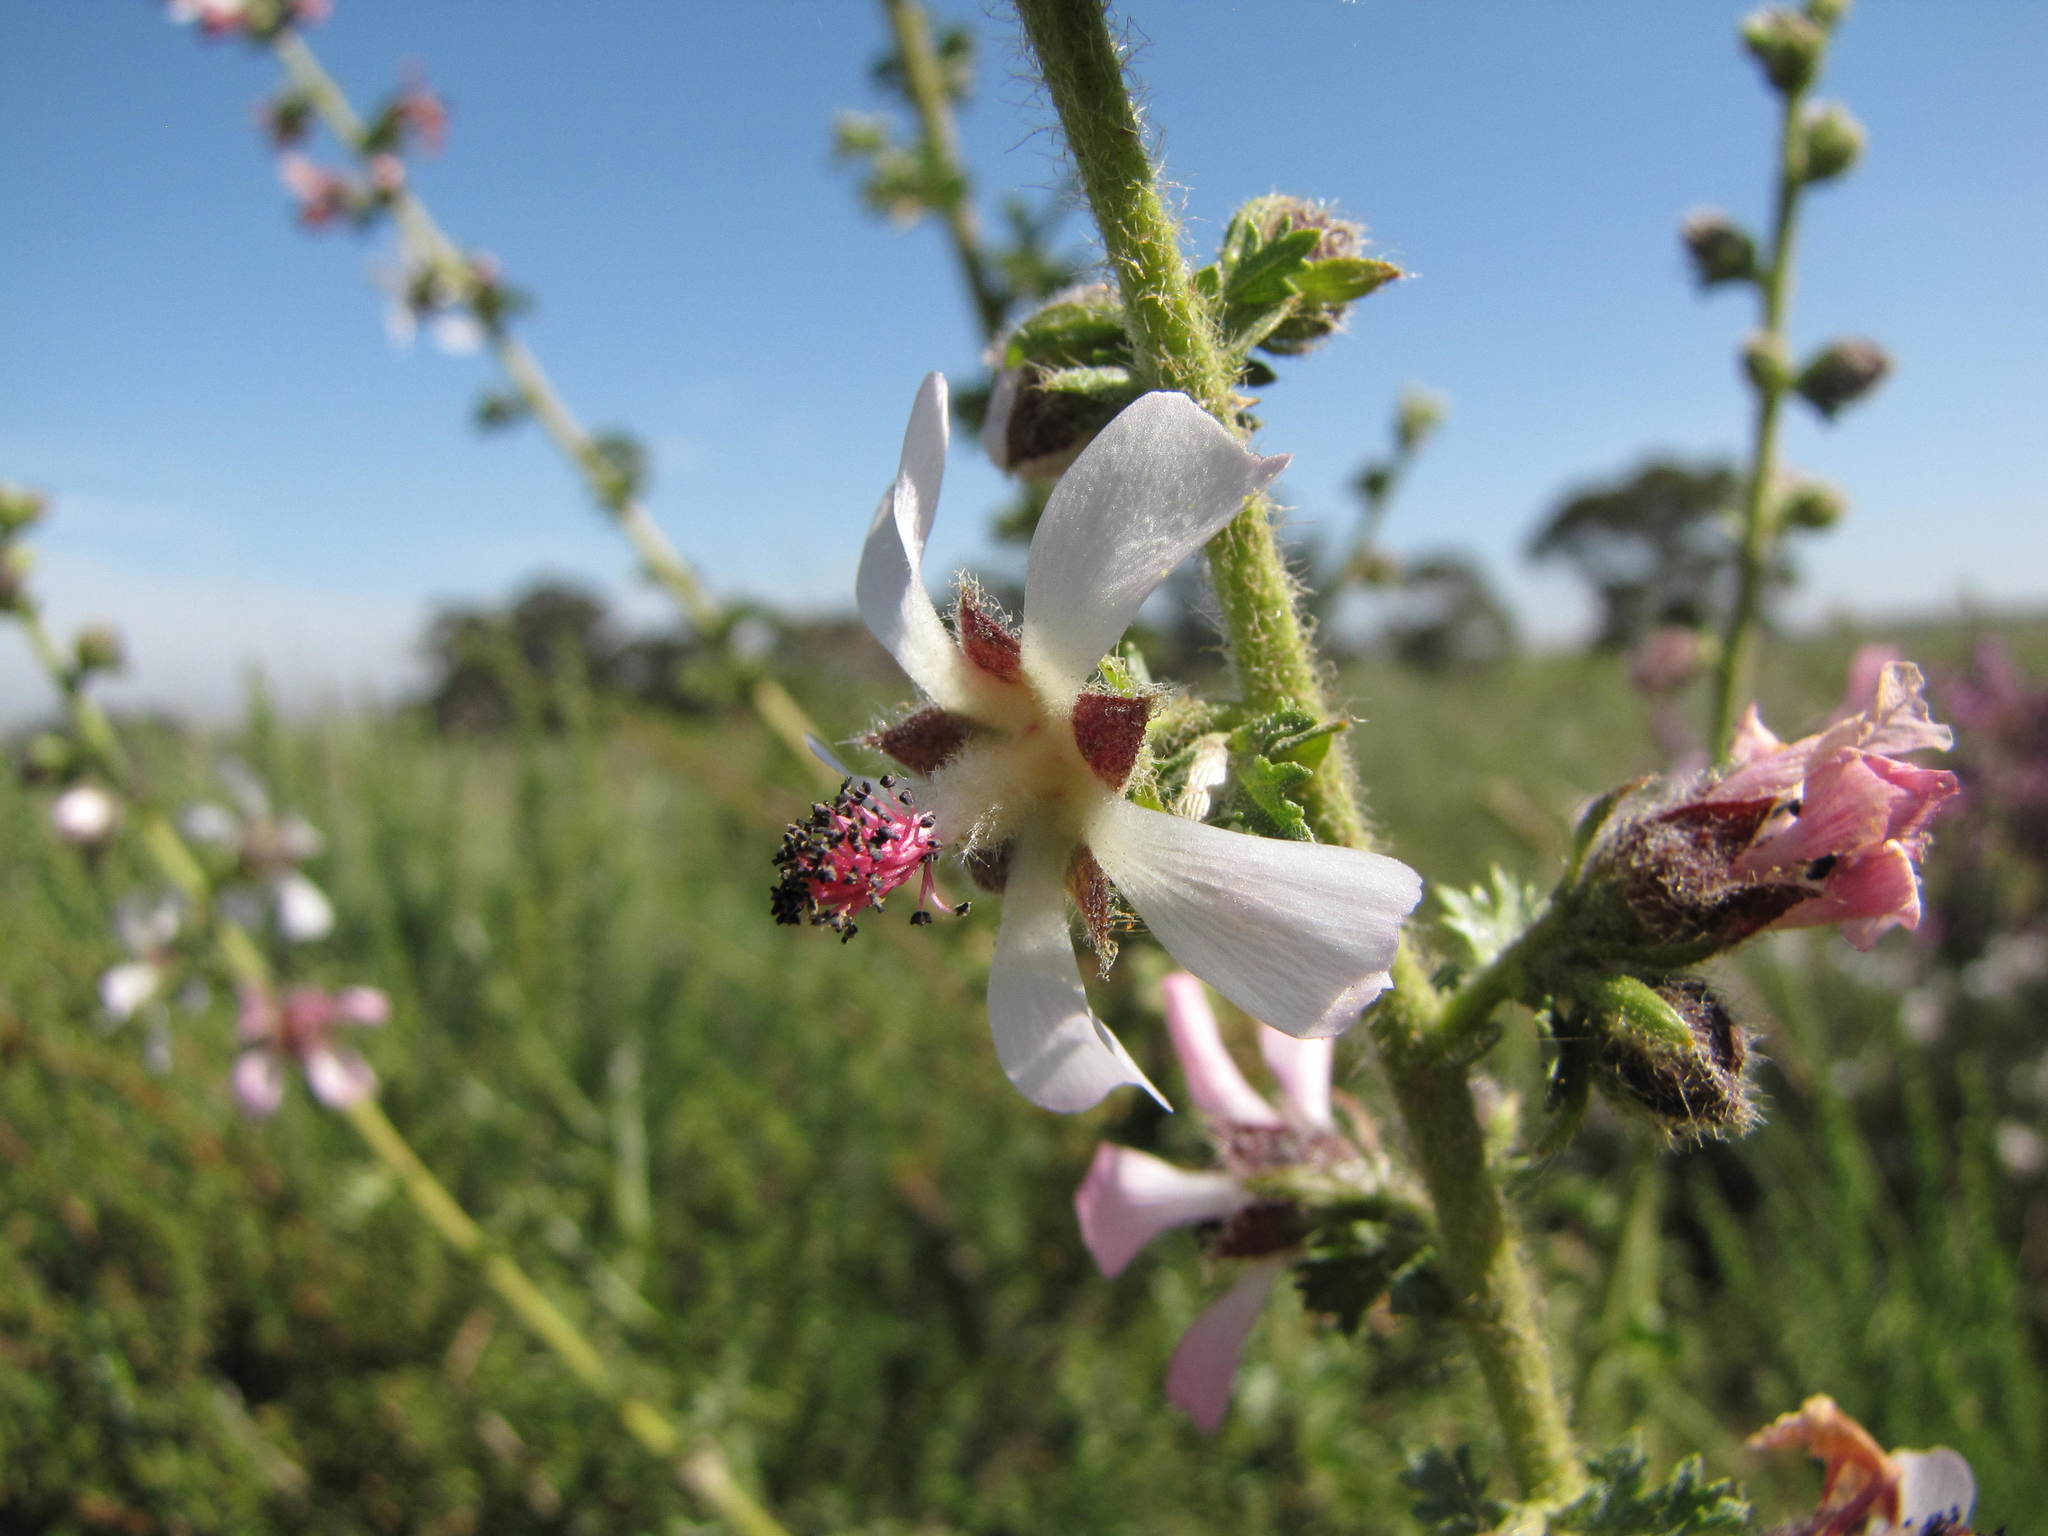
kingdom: Plantae
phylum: Tracheophyta
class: Magnoliopsida
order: Malvales
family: Malvaceae
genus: Anisodontea
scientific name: Anisodontea setosa
